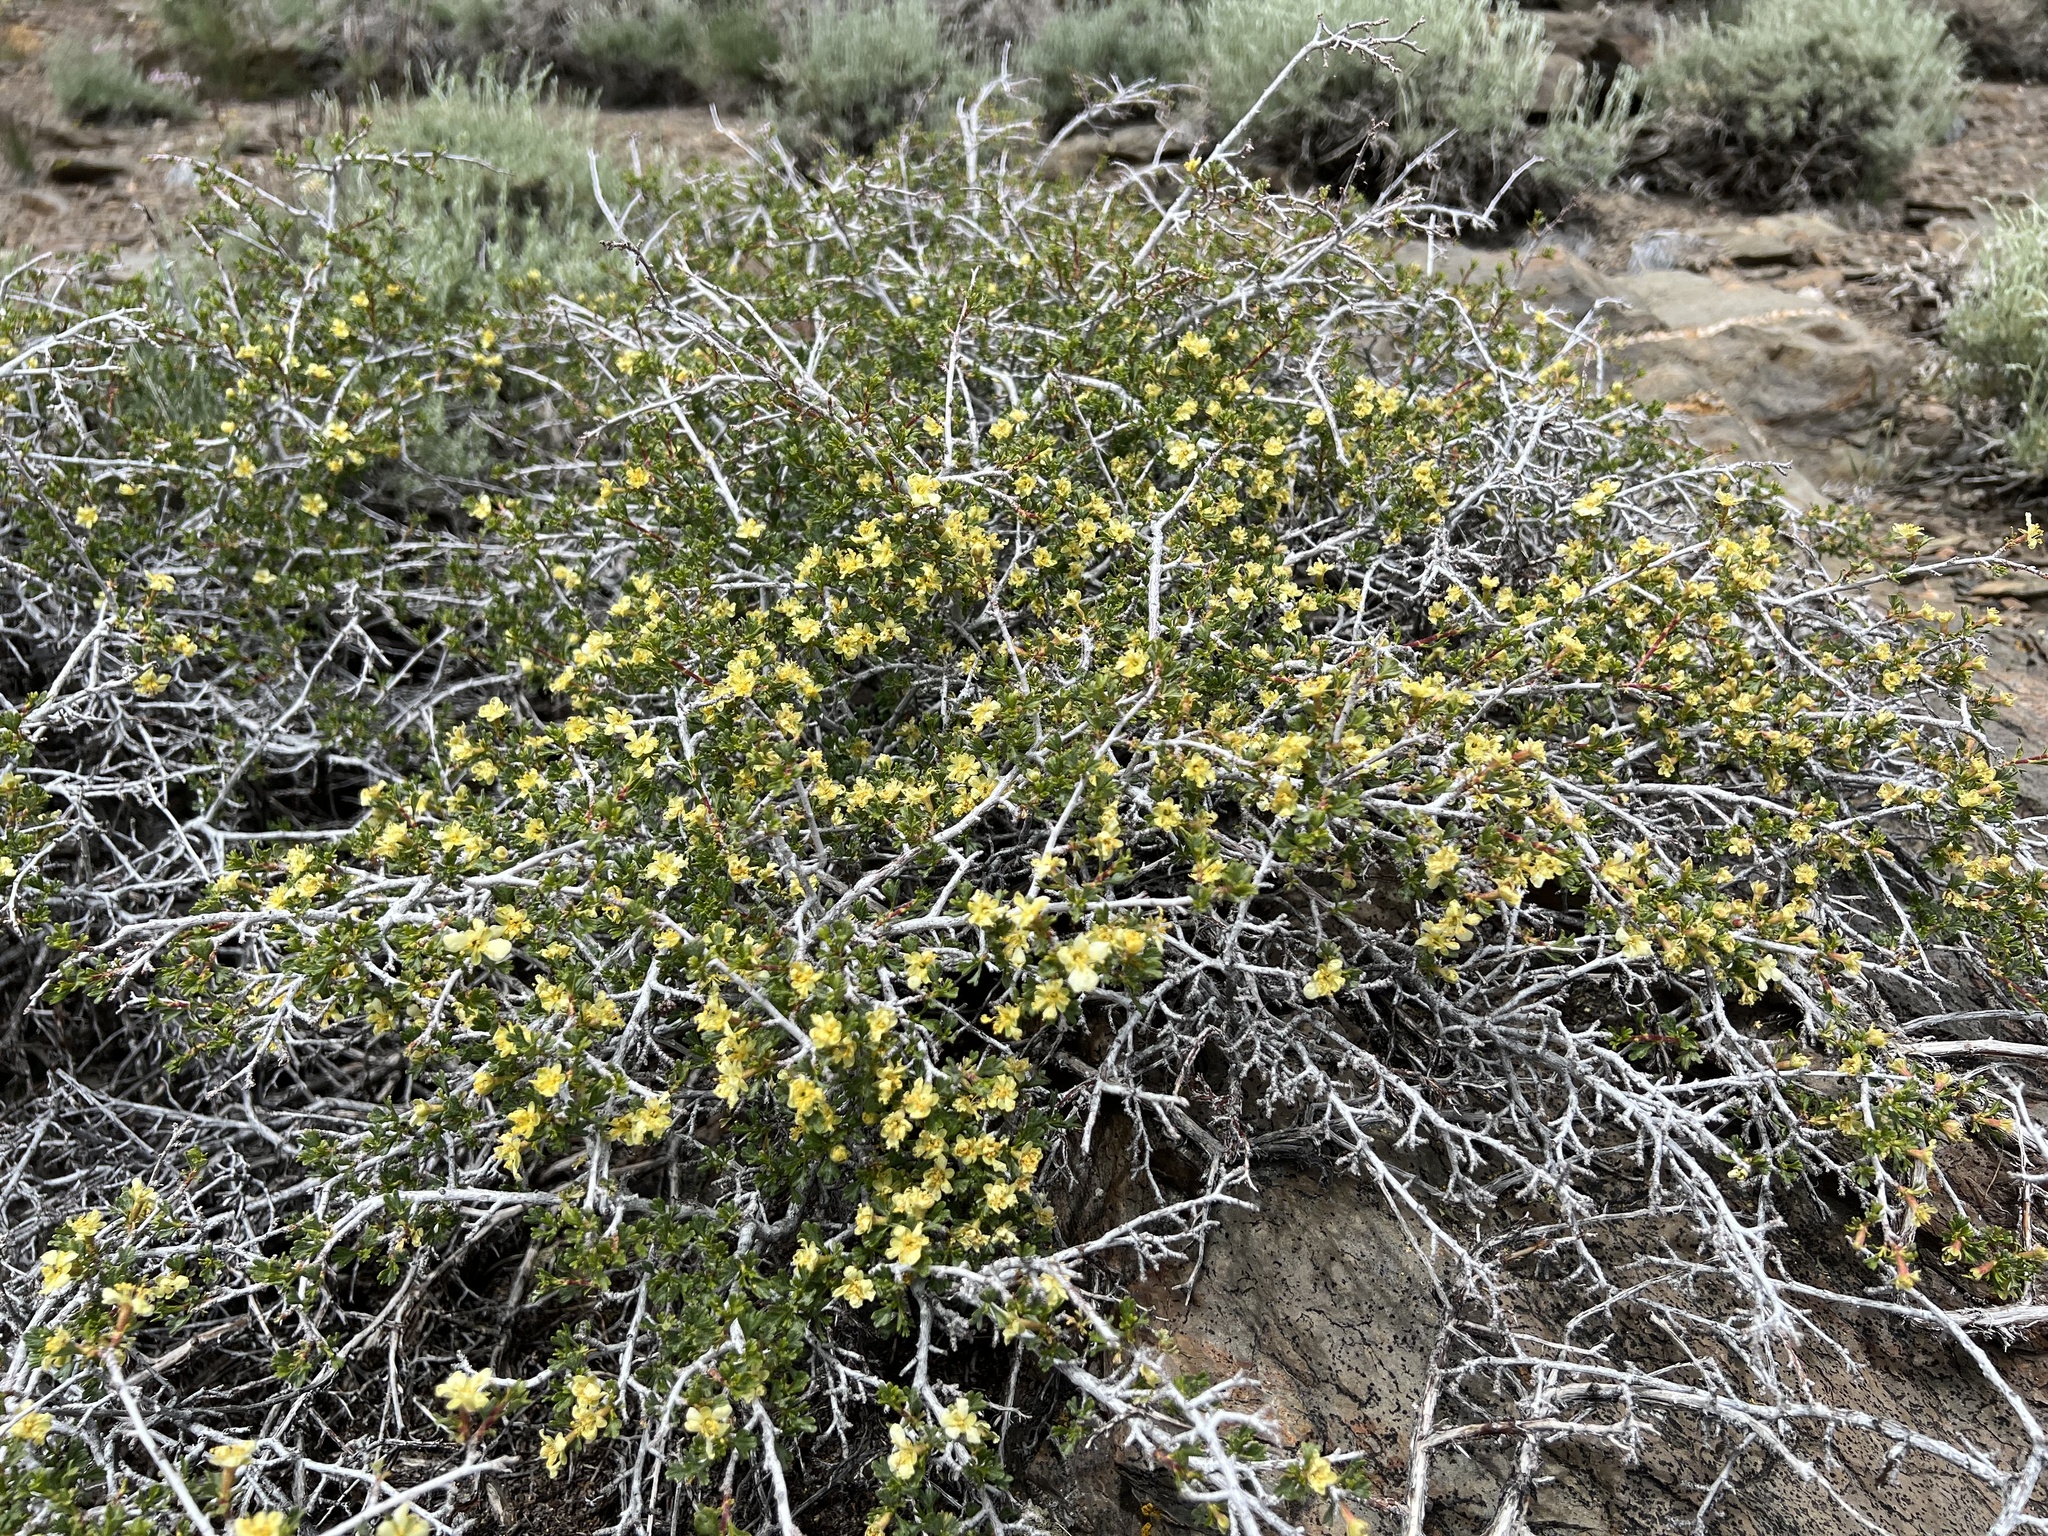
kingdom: Plantae
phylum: Tracheophyta
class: Magnoliopsida
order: Rosales
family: Rosaceae
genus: Purshia
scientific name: Purshia tridentata
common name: Antelope bitterbrush
